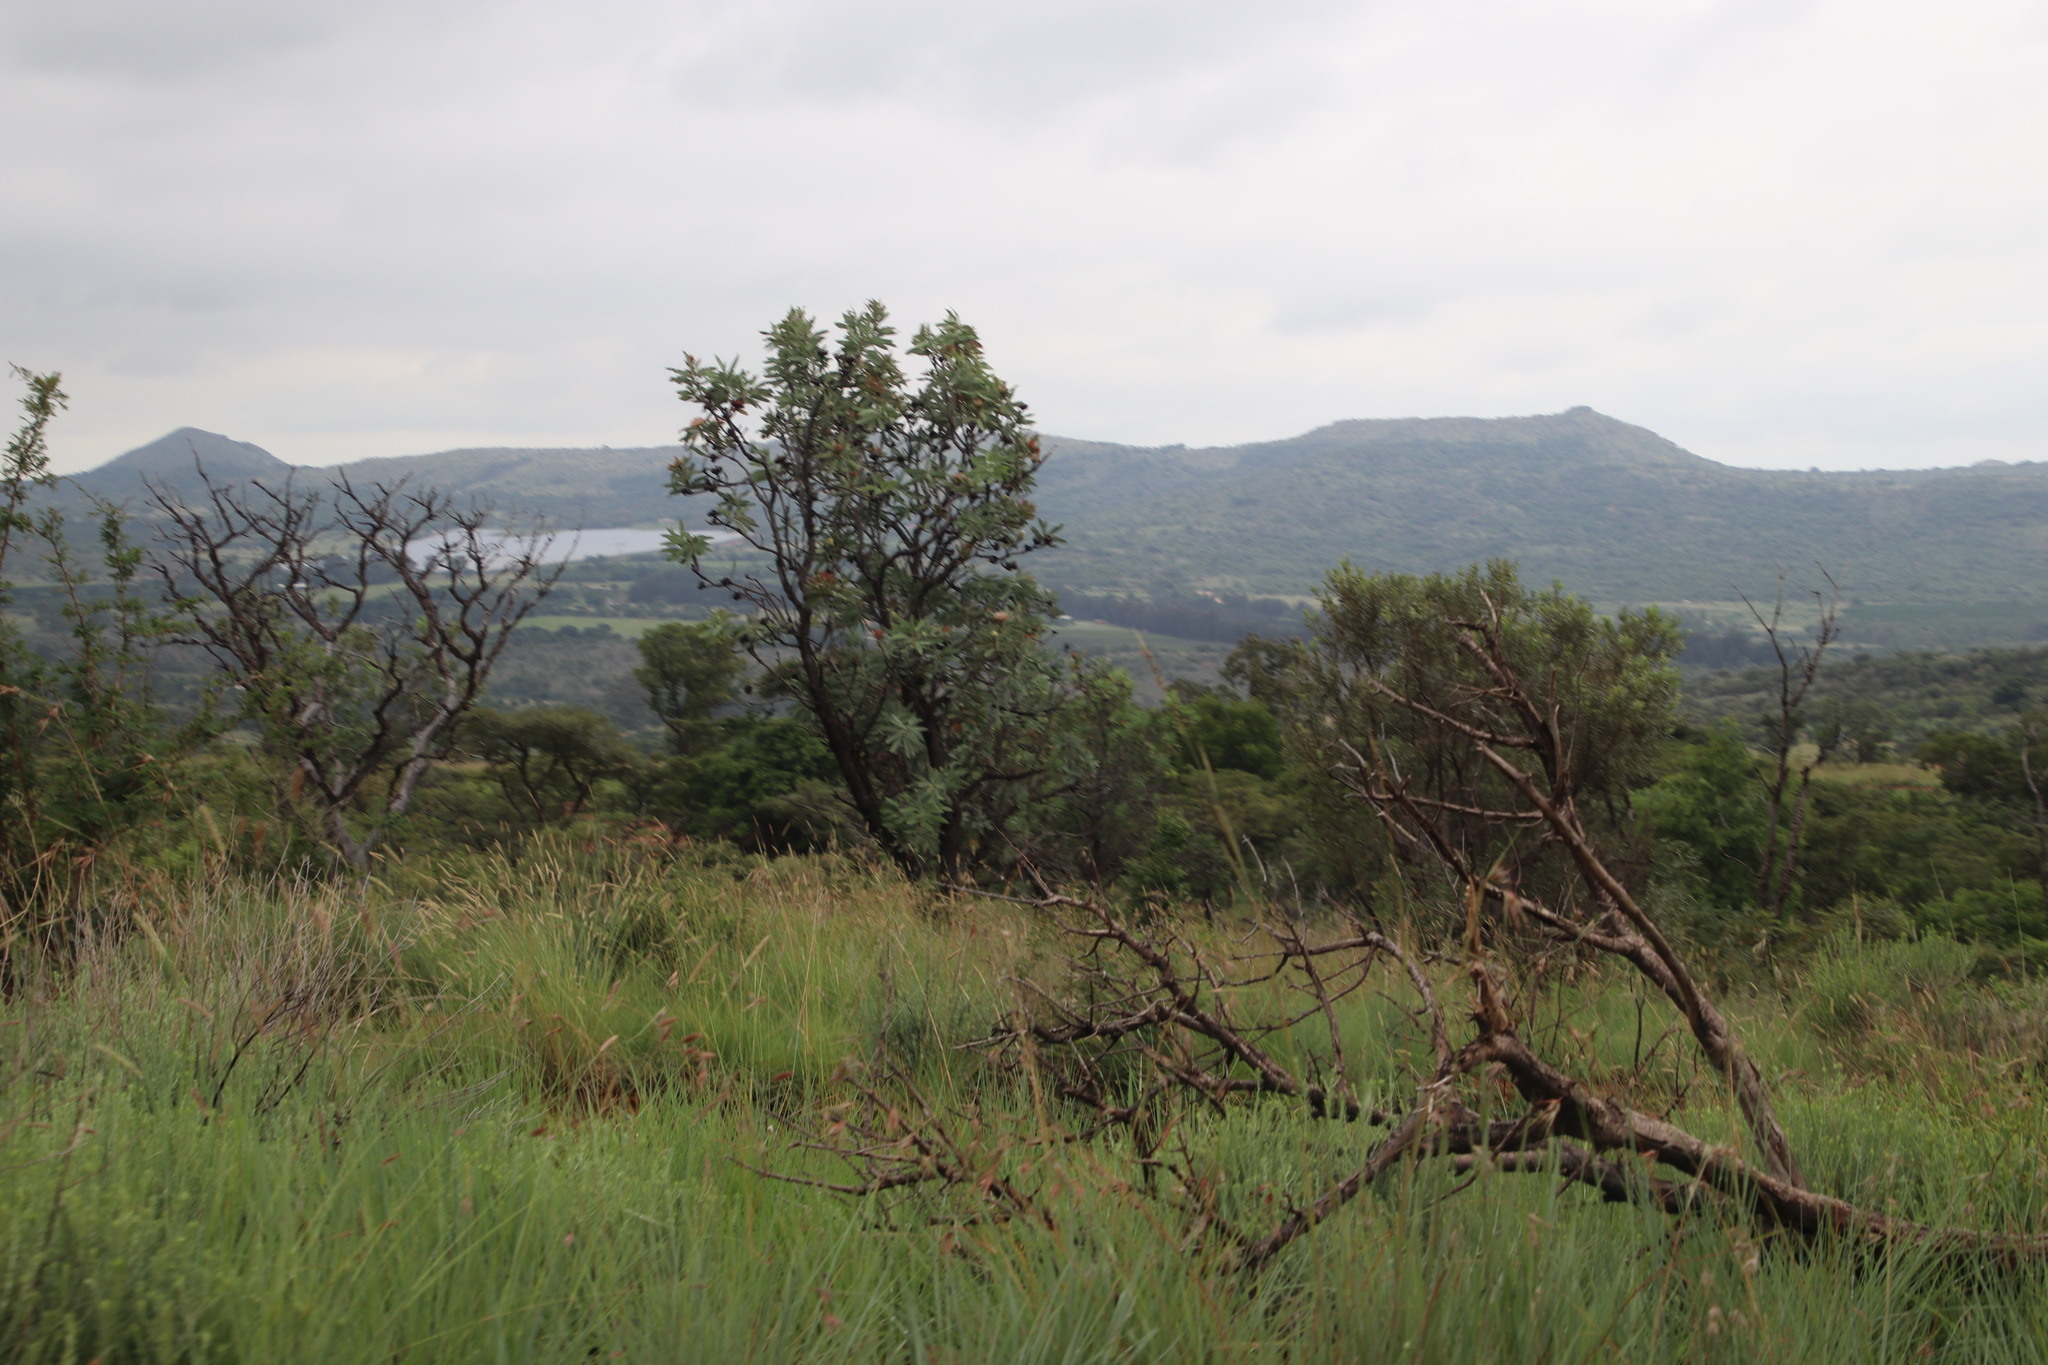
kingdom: Plantae
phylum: Tracheophyta
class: Magnoliopsida
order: Proteales
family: Proteaceae
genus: Protea
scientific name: Protea caffra
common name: Common sugarbush
